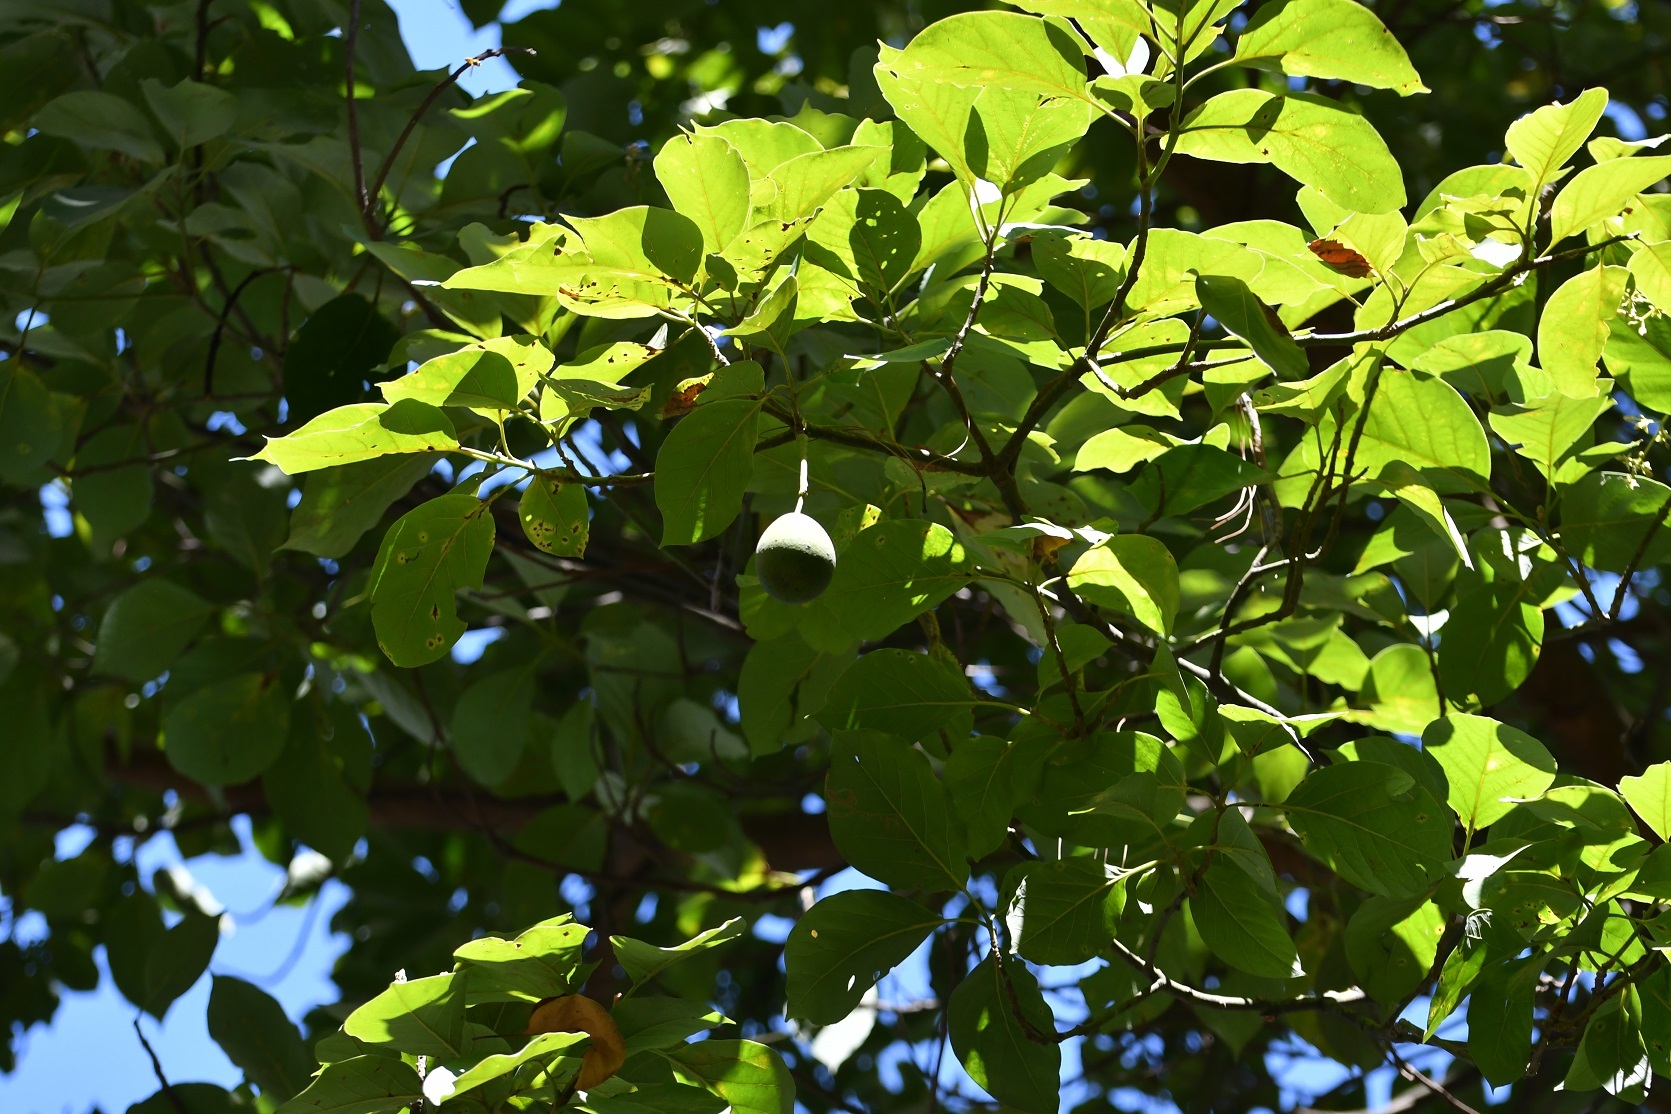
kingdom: Plantae
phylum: Tracheophyta
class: Magnoliopsida
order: Laurales
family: Lauraceae
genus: Persea
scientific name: Persea americana
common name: Avocado
